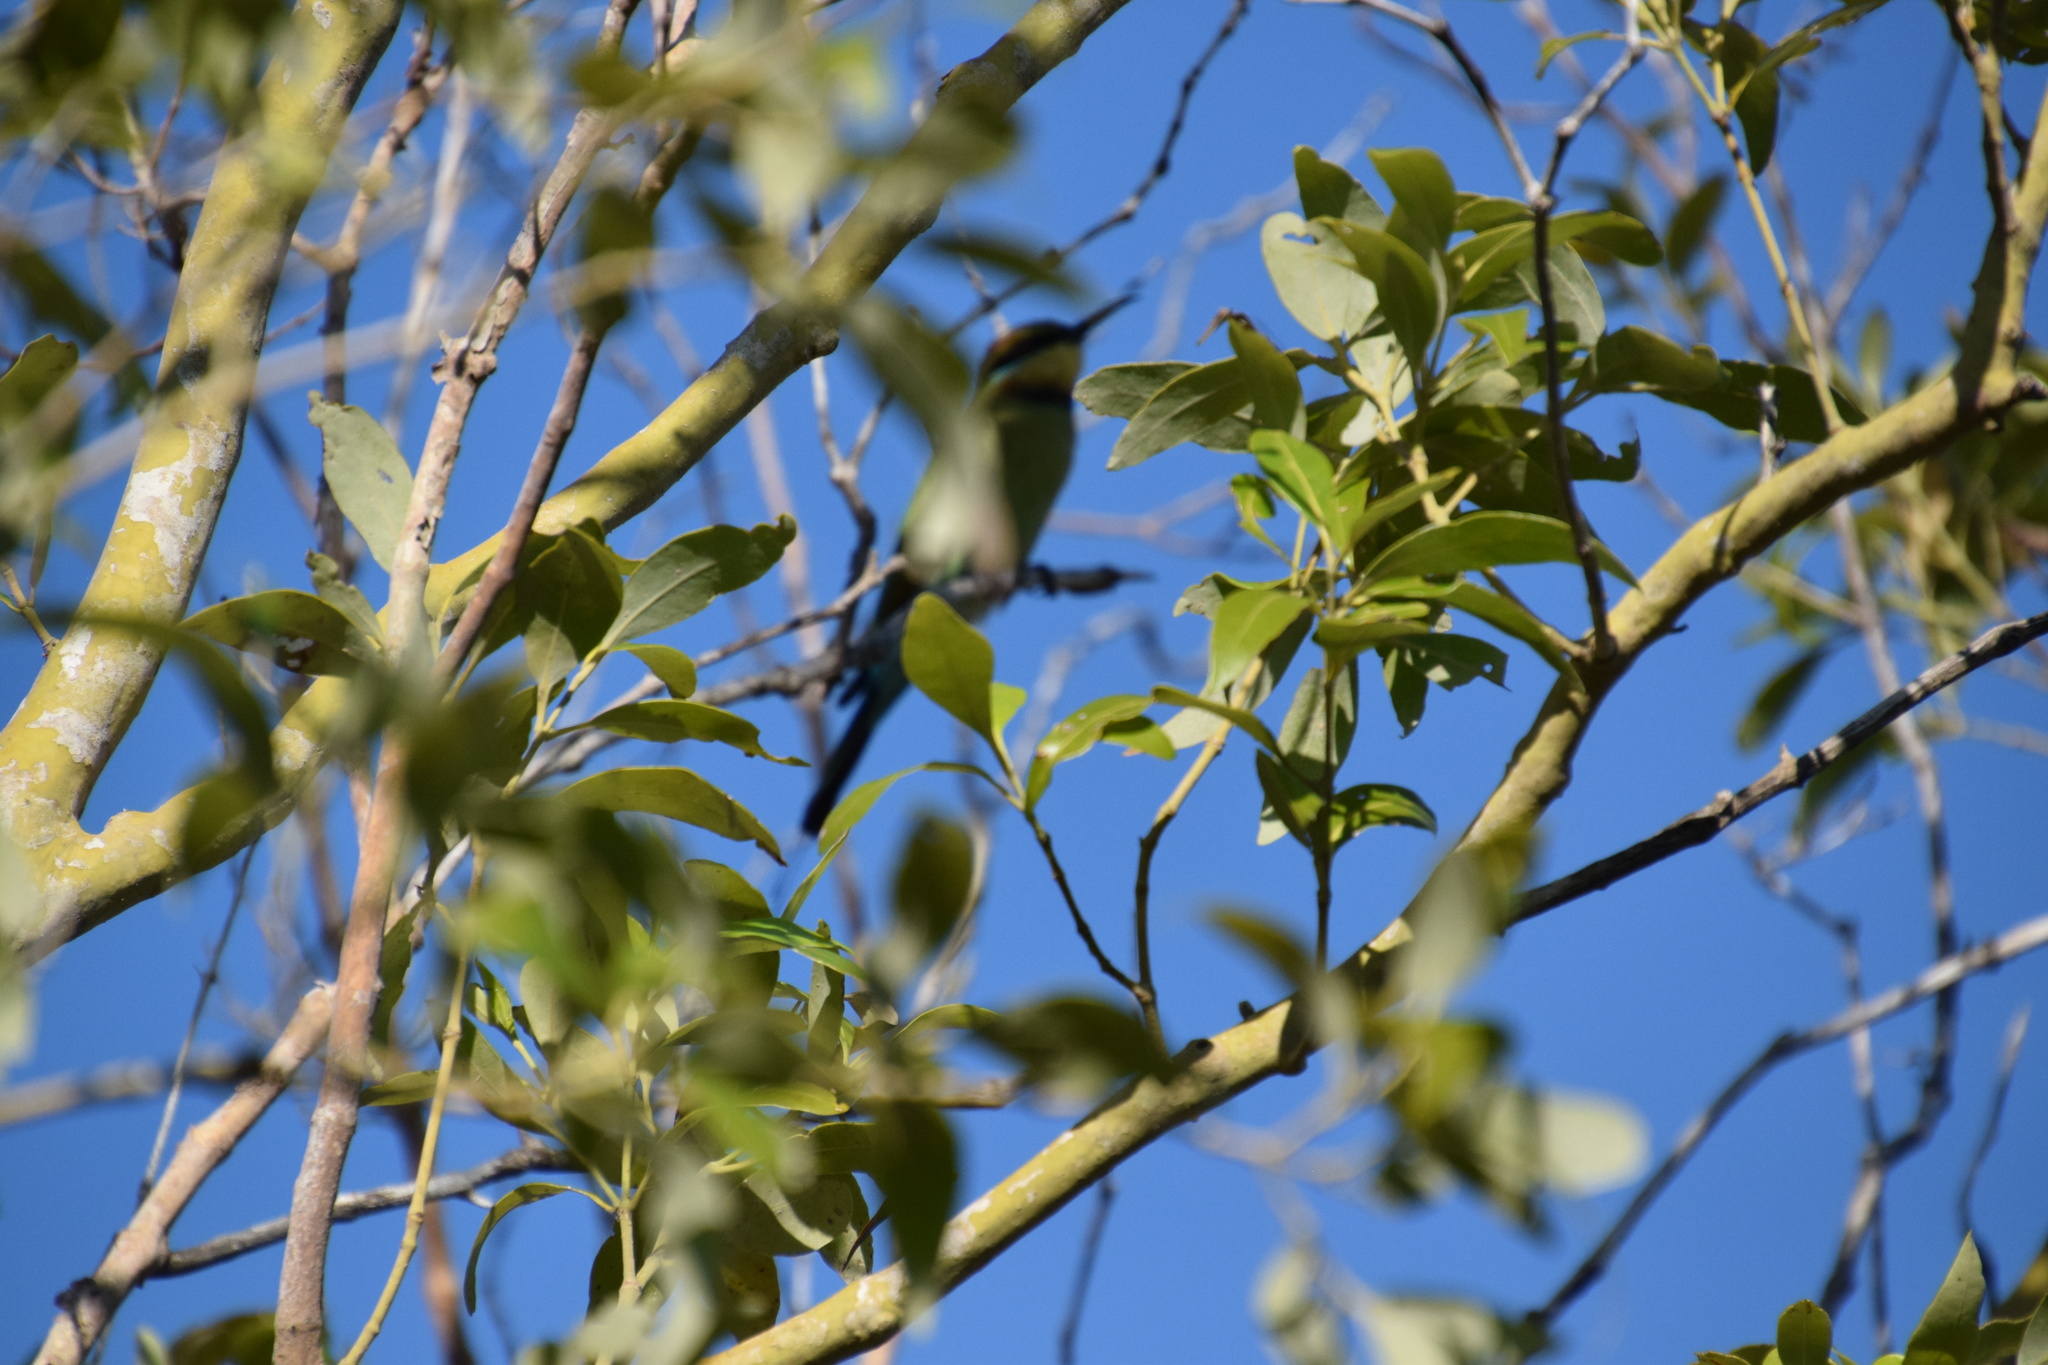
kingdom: Animalia
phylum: Chordata
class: Aves
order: Coraciiformes
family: Meropidae
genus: Merops
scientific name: Merops ornatus
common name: Rainbow bee-eater
